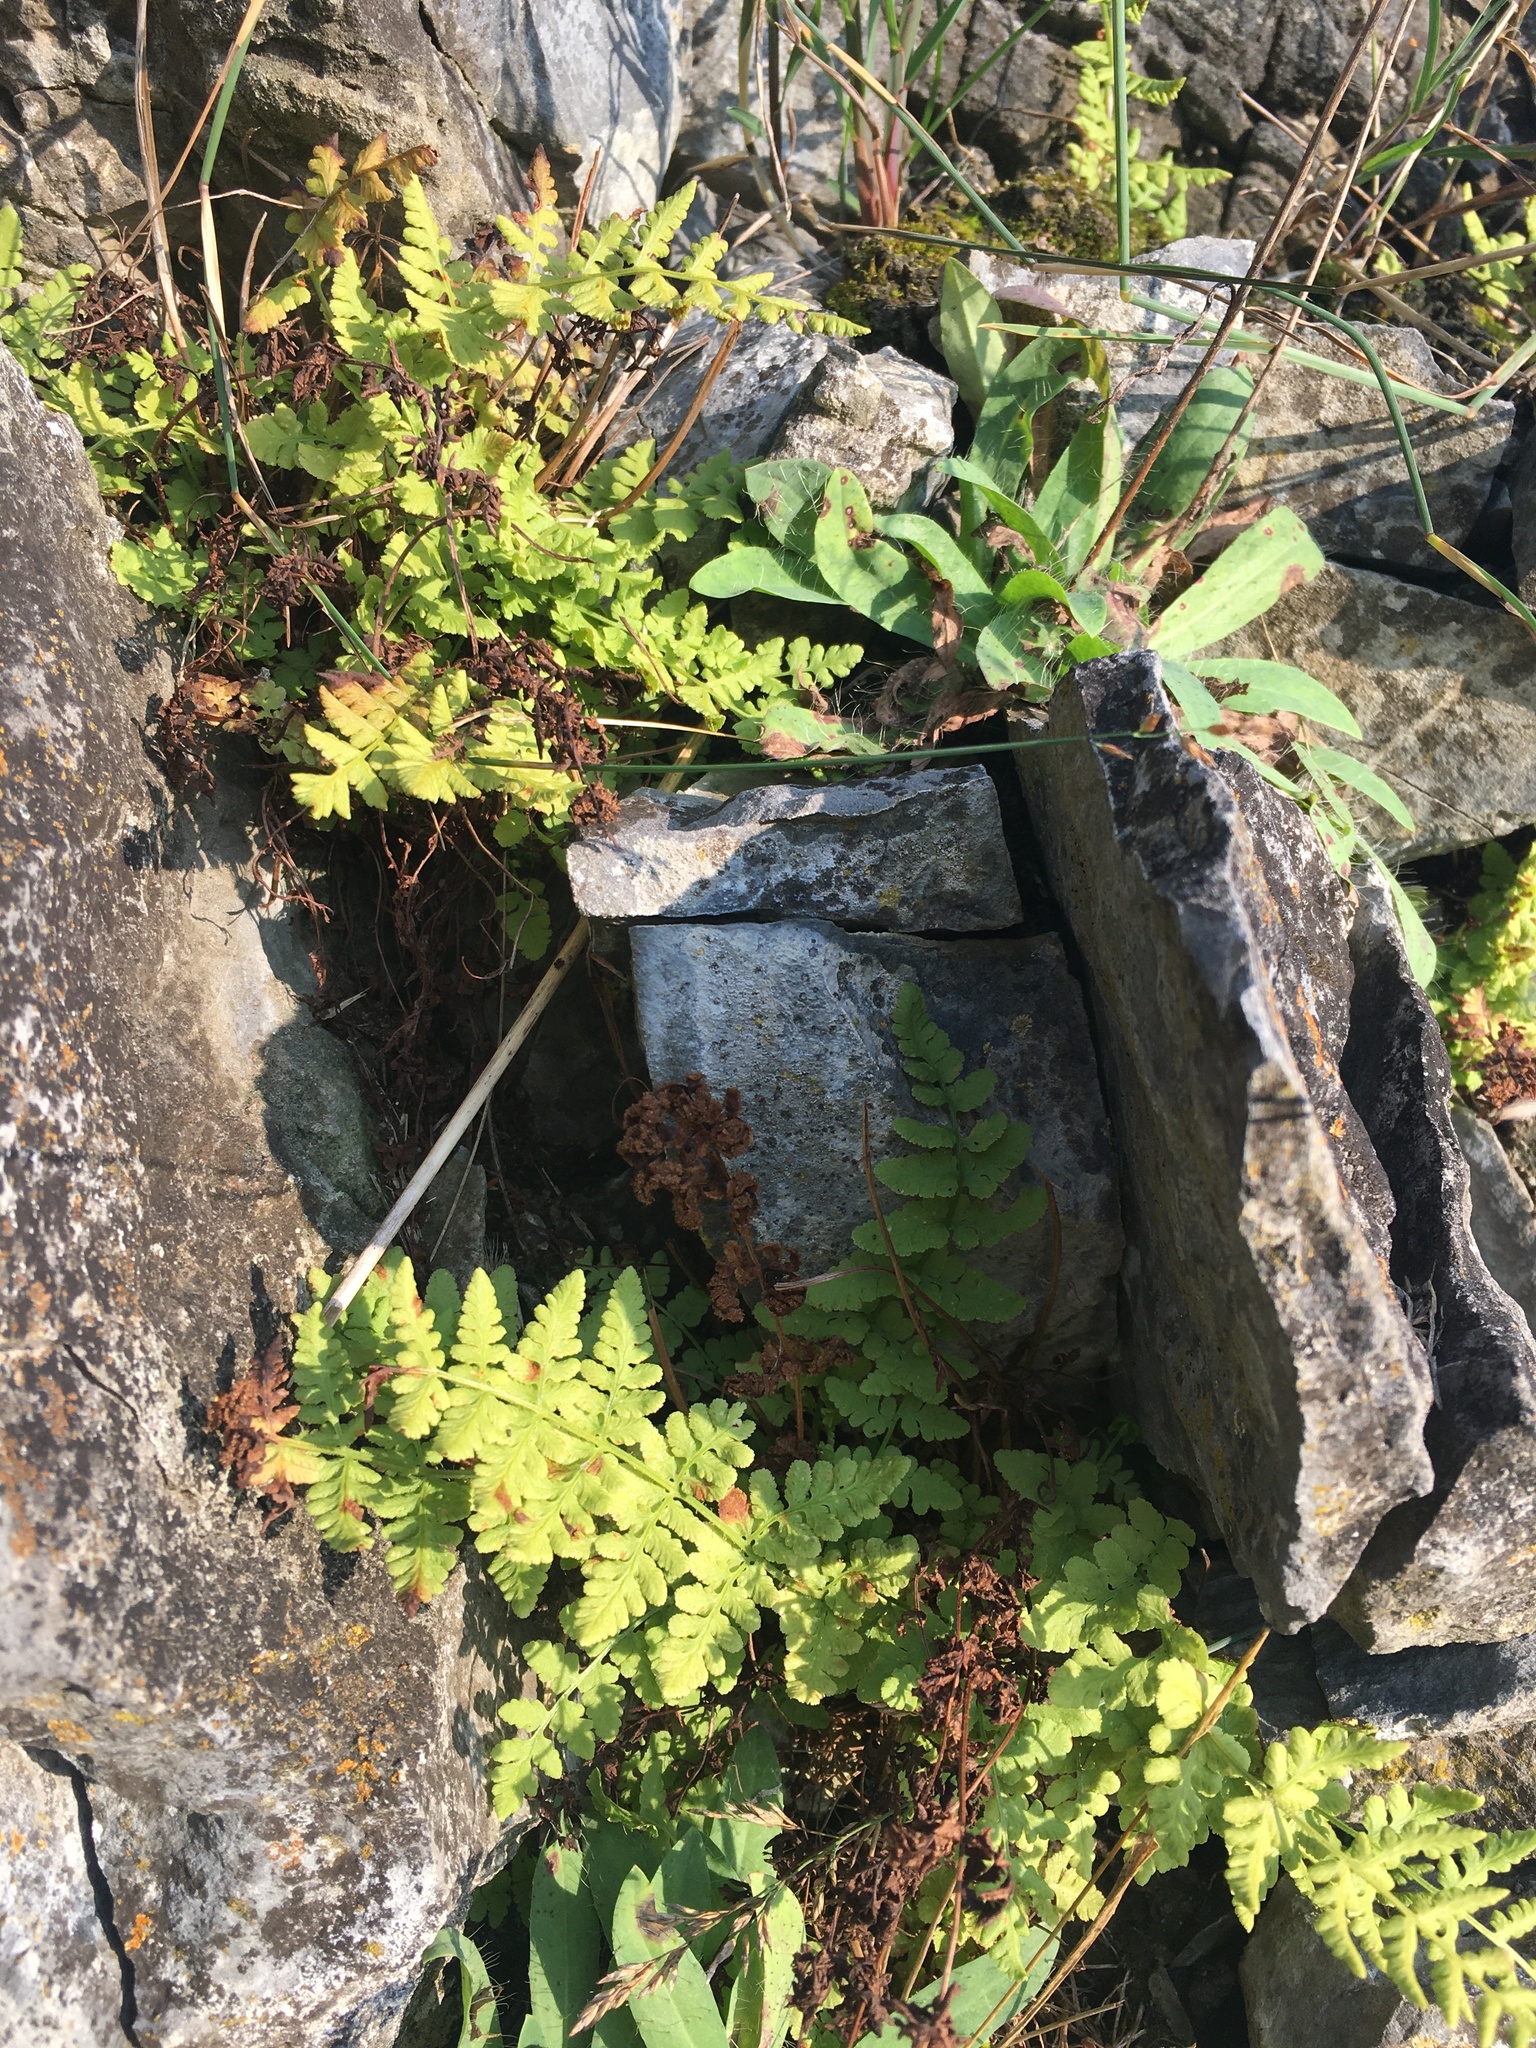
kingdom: Plantae
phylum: Tracheophyta
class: Magnoliopsida
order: Geraniales
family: Geraniaceae
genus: Geranium
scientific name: Geranium robertianum
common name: Herb-robert
